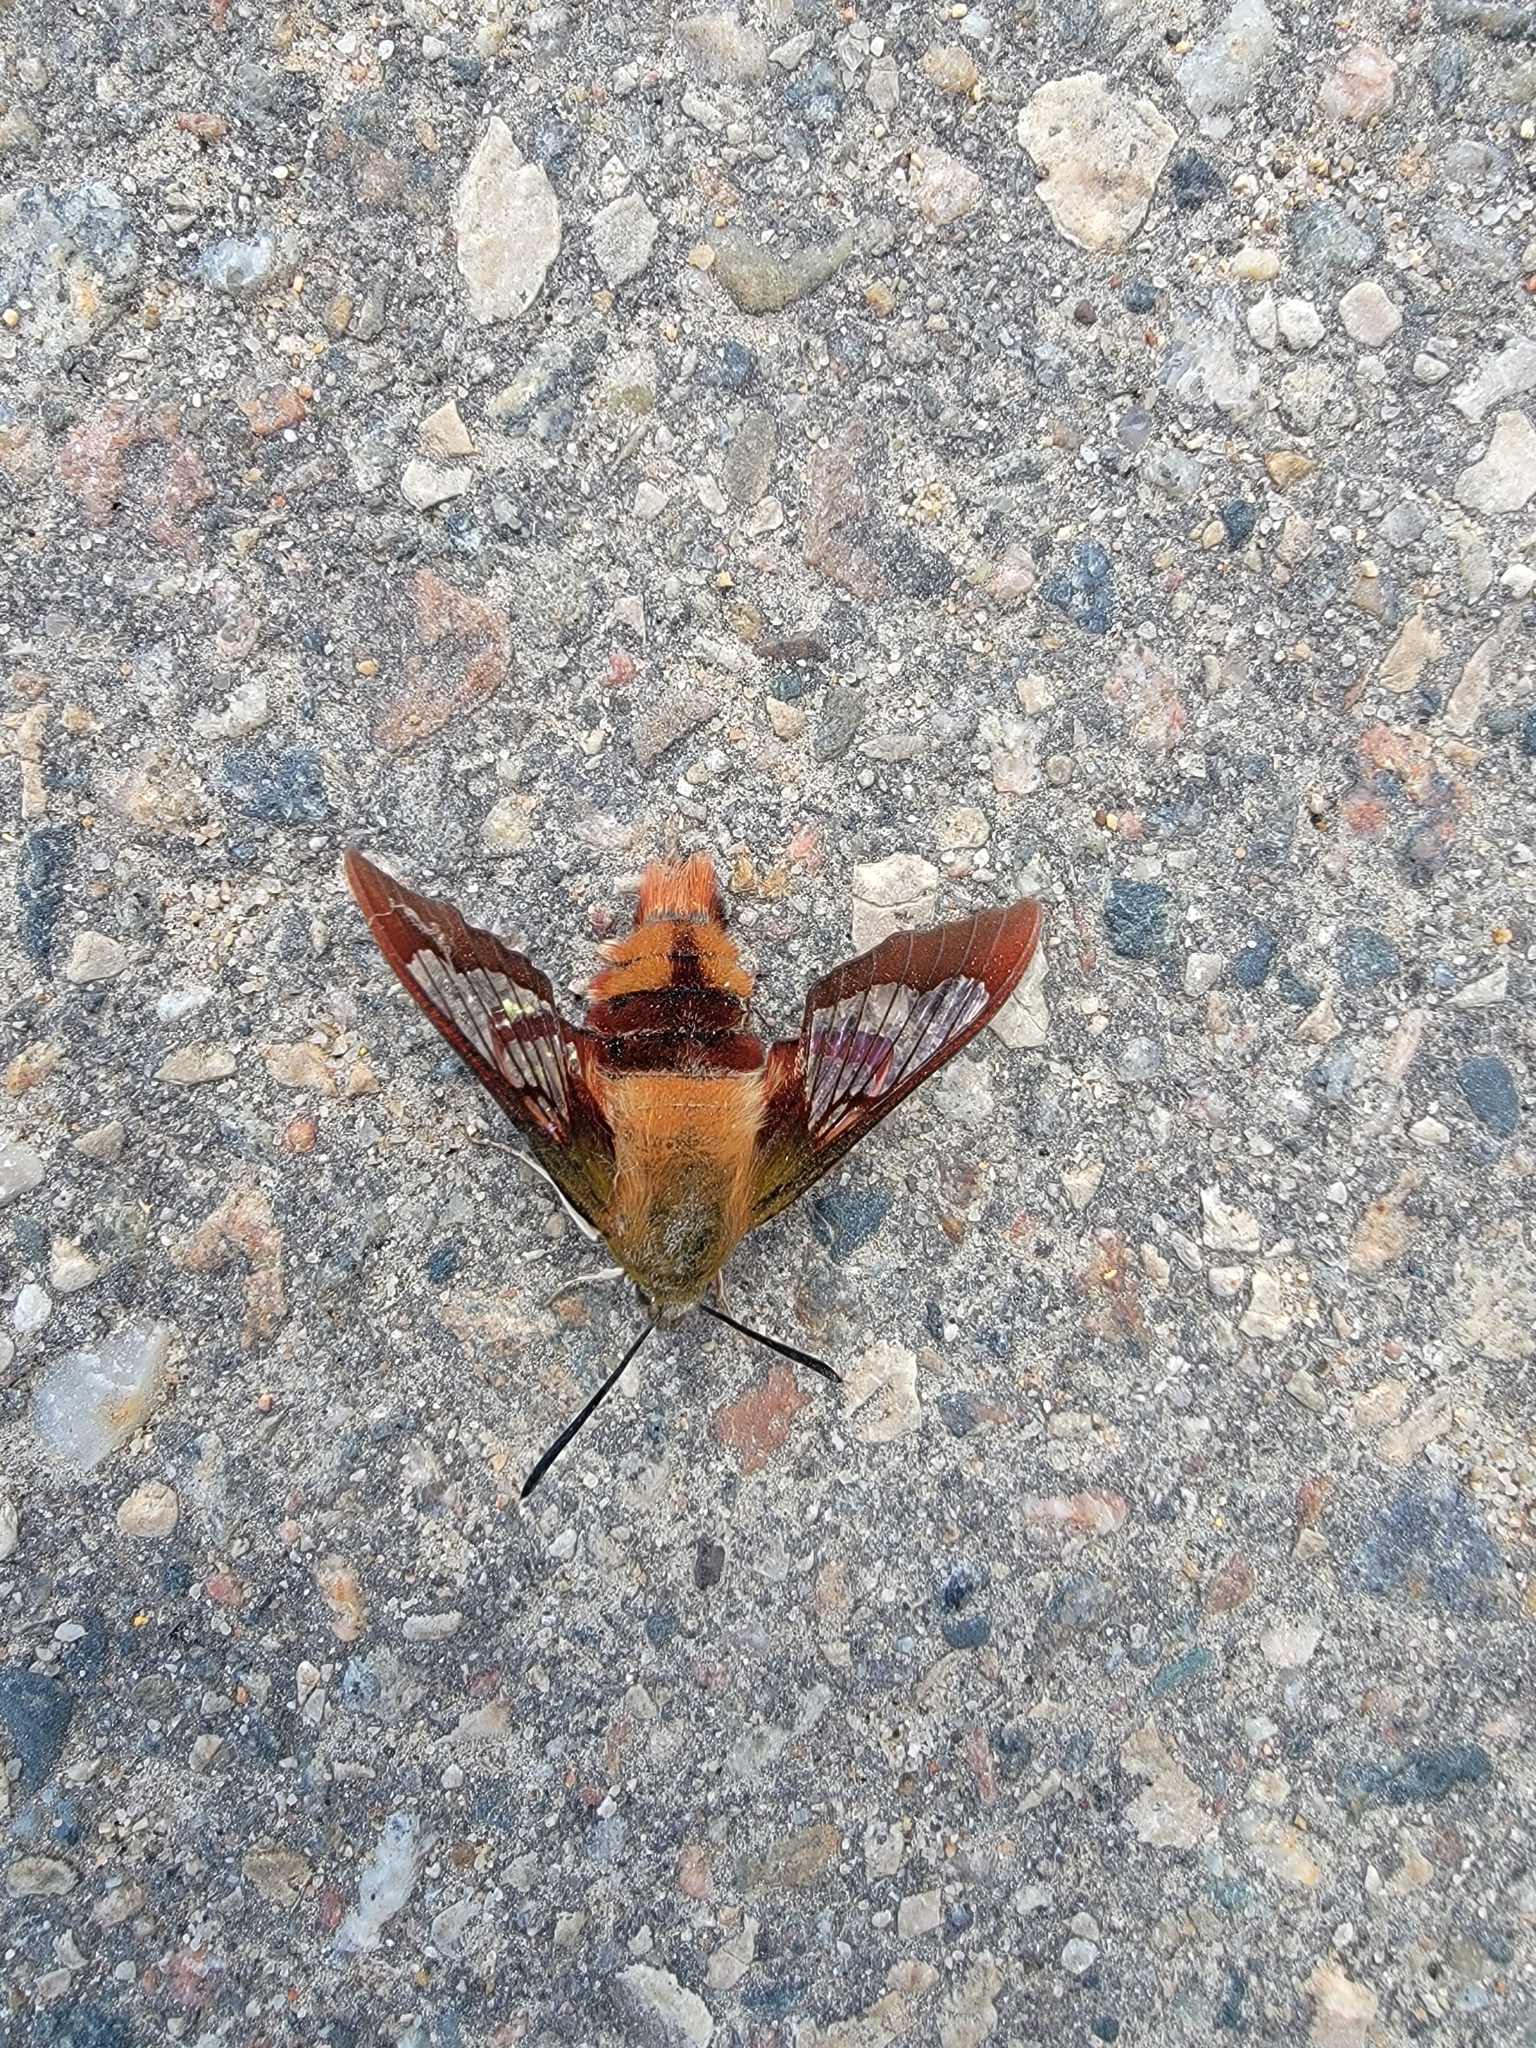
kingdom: Animalia
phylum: Arthropoda
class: Insecta
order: Lepidoptera
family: Sphingidae
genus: Hemaris
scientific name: Hemaris thysbe
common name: Common clear-wing
